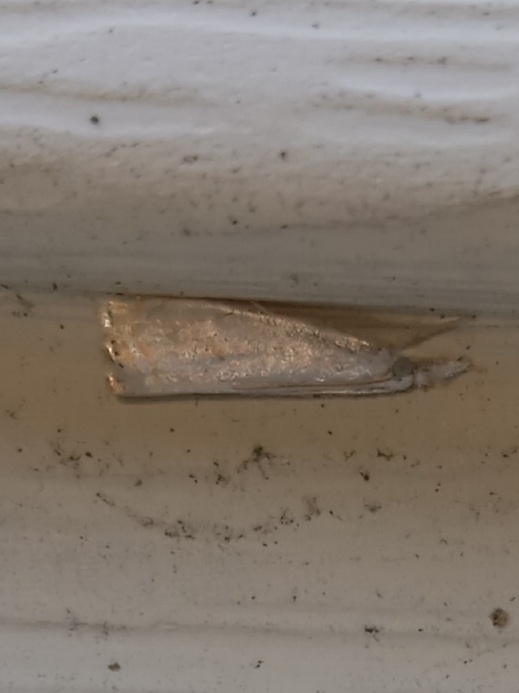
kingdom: Animalia
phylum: Arthropoda
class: Insecta
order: Lepidoptera
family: Crambidae
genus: Crambus
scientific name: Crambus albellus
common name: Small white grass-veneer
